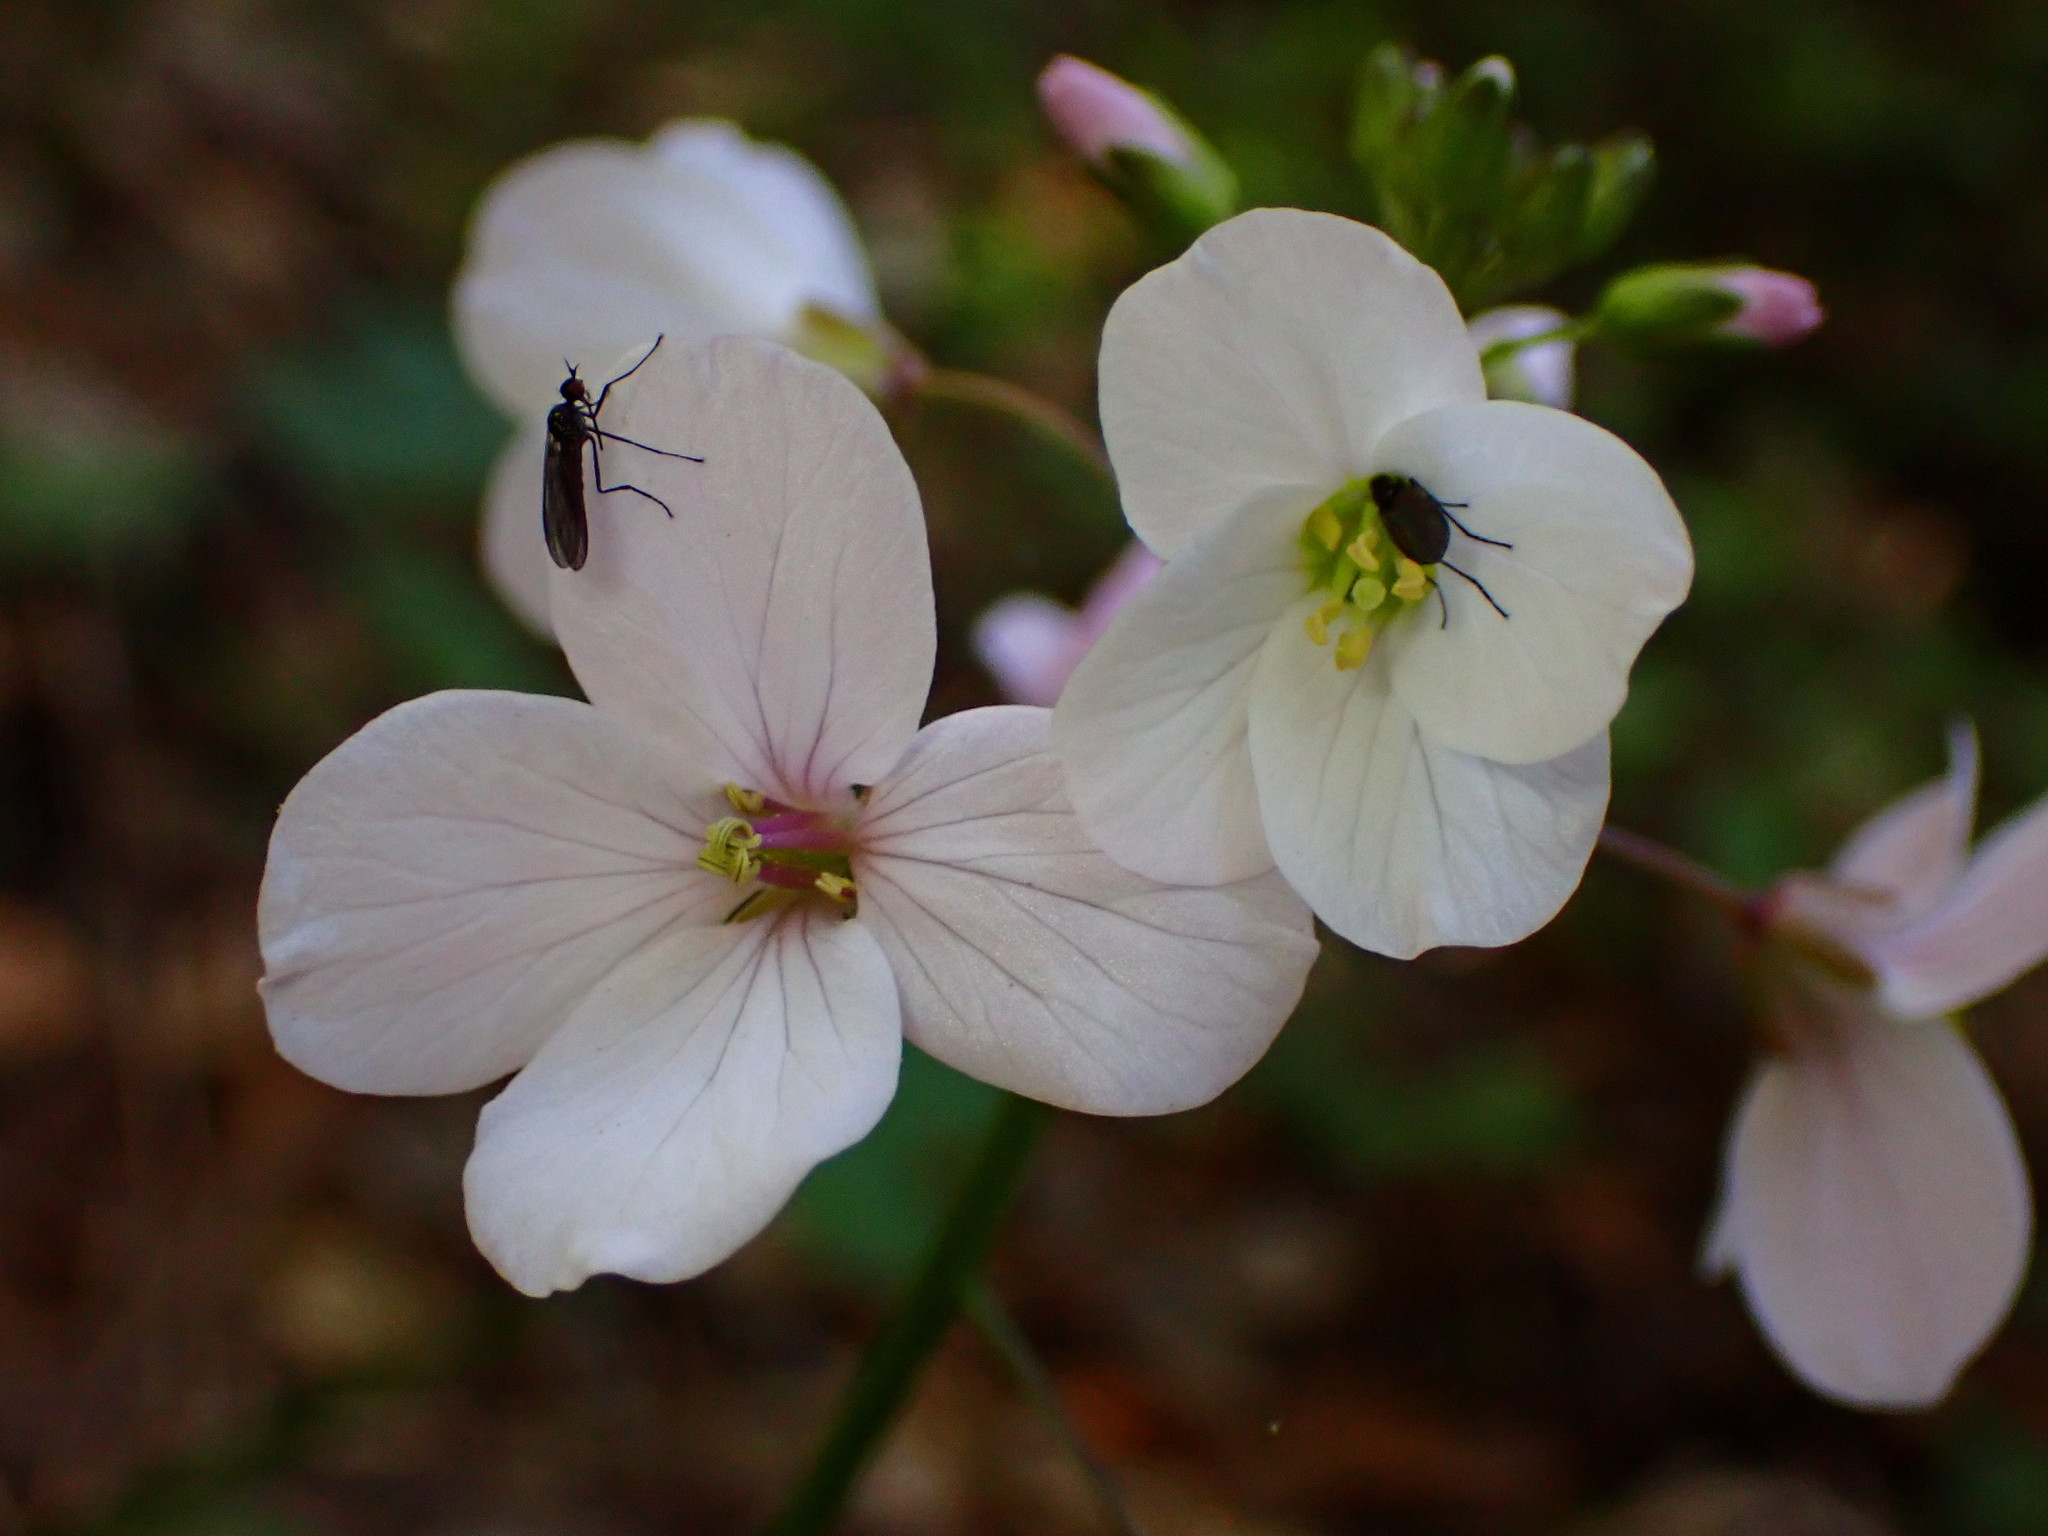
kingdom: Plantae
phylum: Tracheophyta
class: Magnoliopsida
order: Brassicales
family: Brassicaceae
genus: Cardamine
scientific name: Cardamine californica
